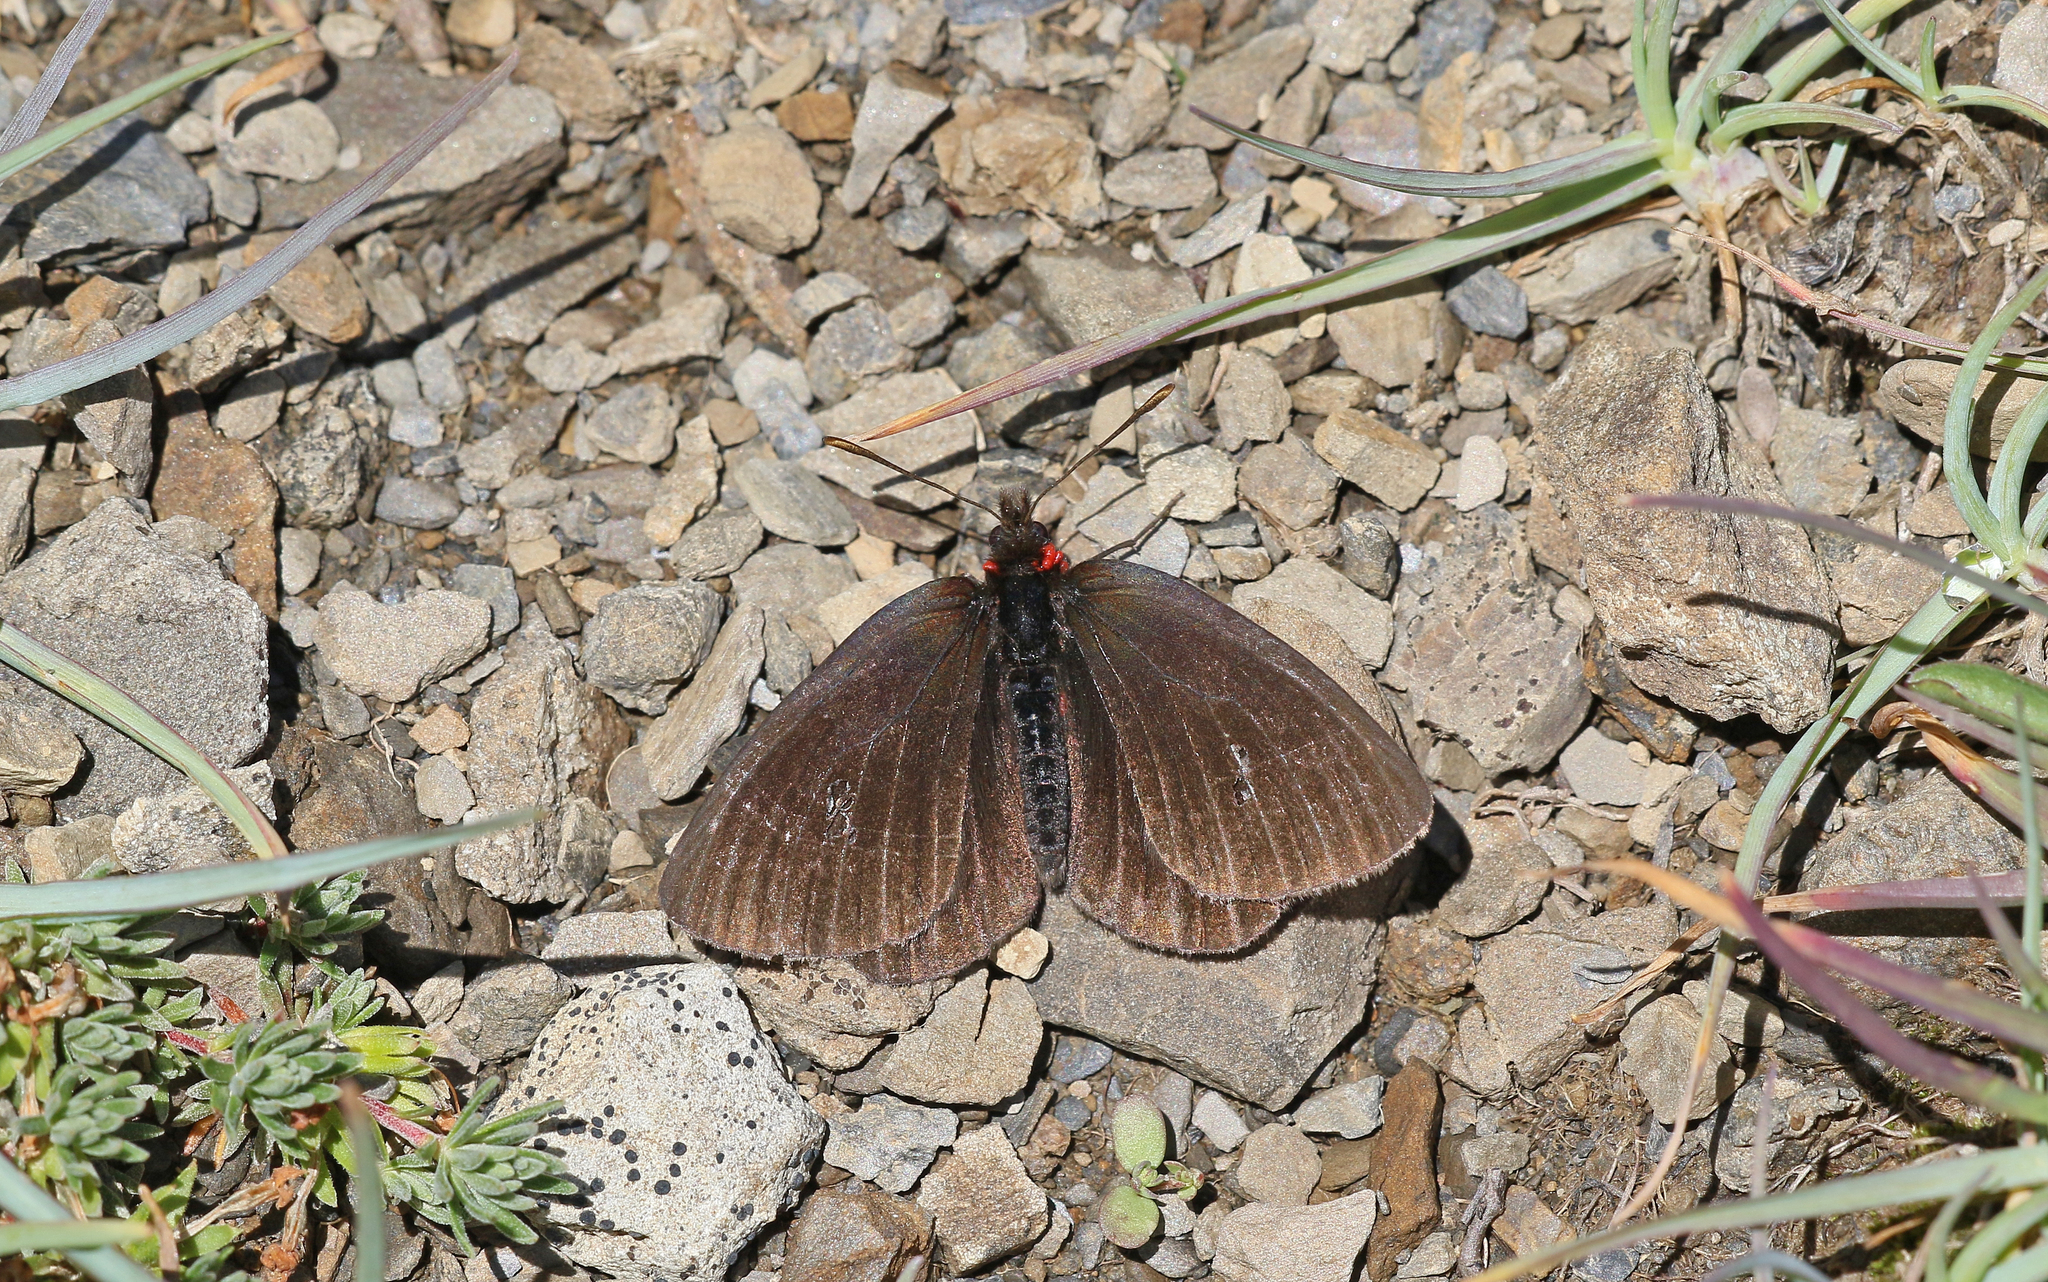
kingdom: Animalia
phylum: Arthropoda
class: Insecta
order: Lepidoptera
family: Nymphalidae
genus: Erebia
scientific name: Erebia pluto
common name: Sooty ringlet
